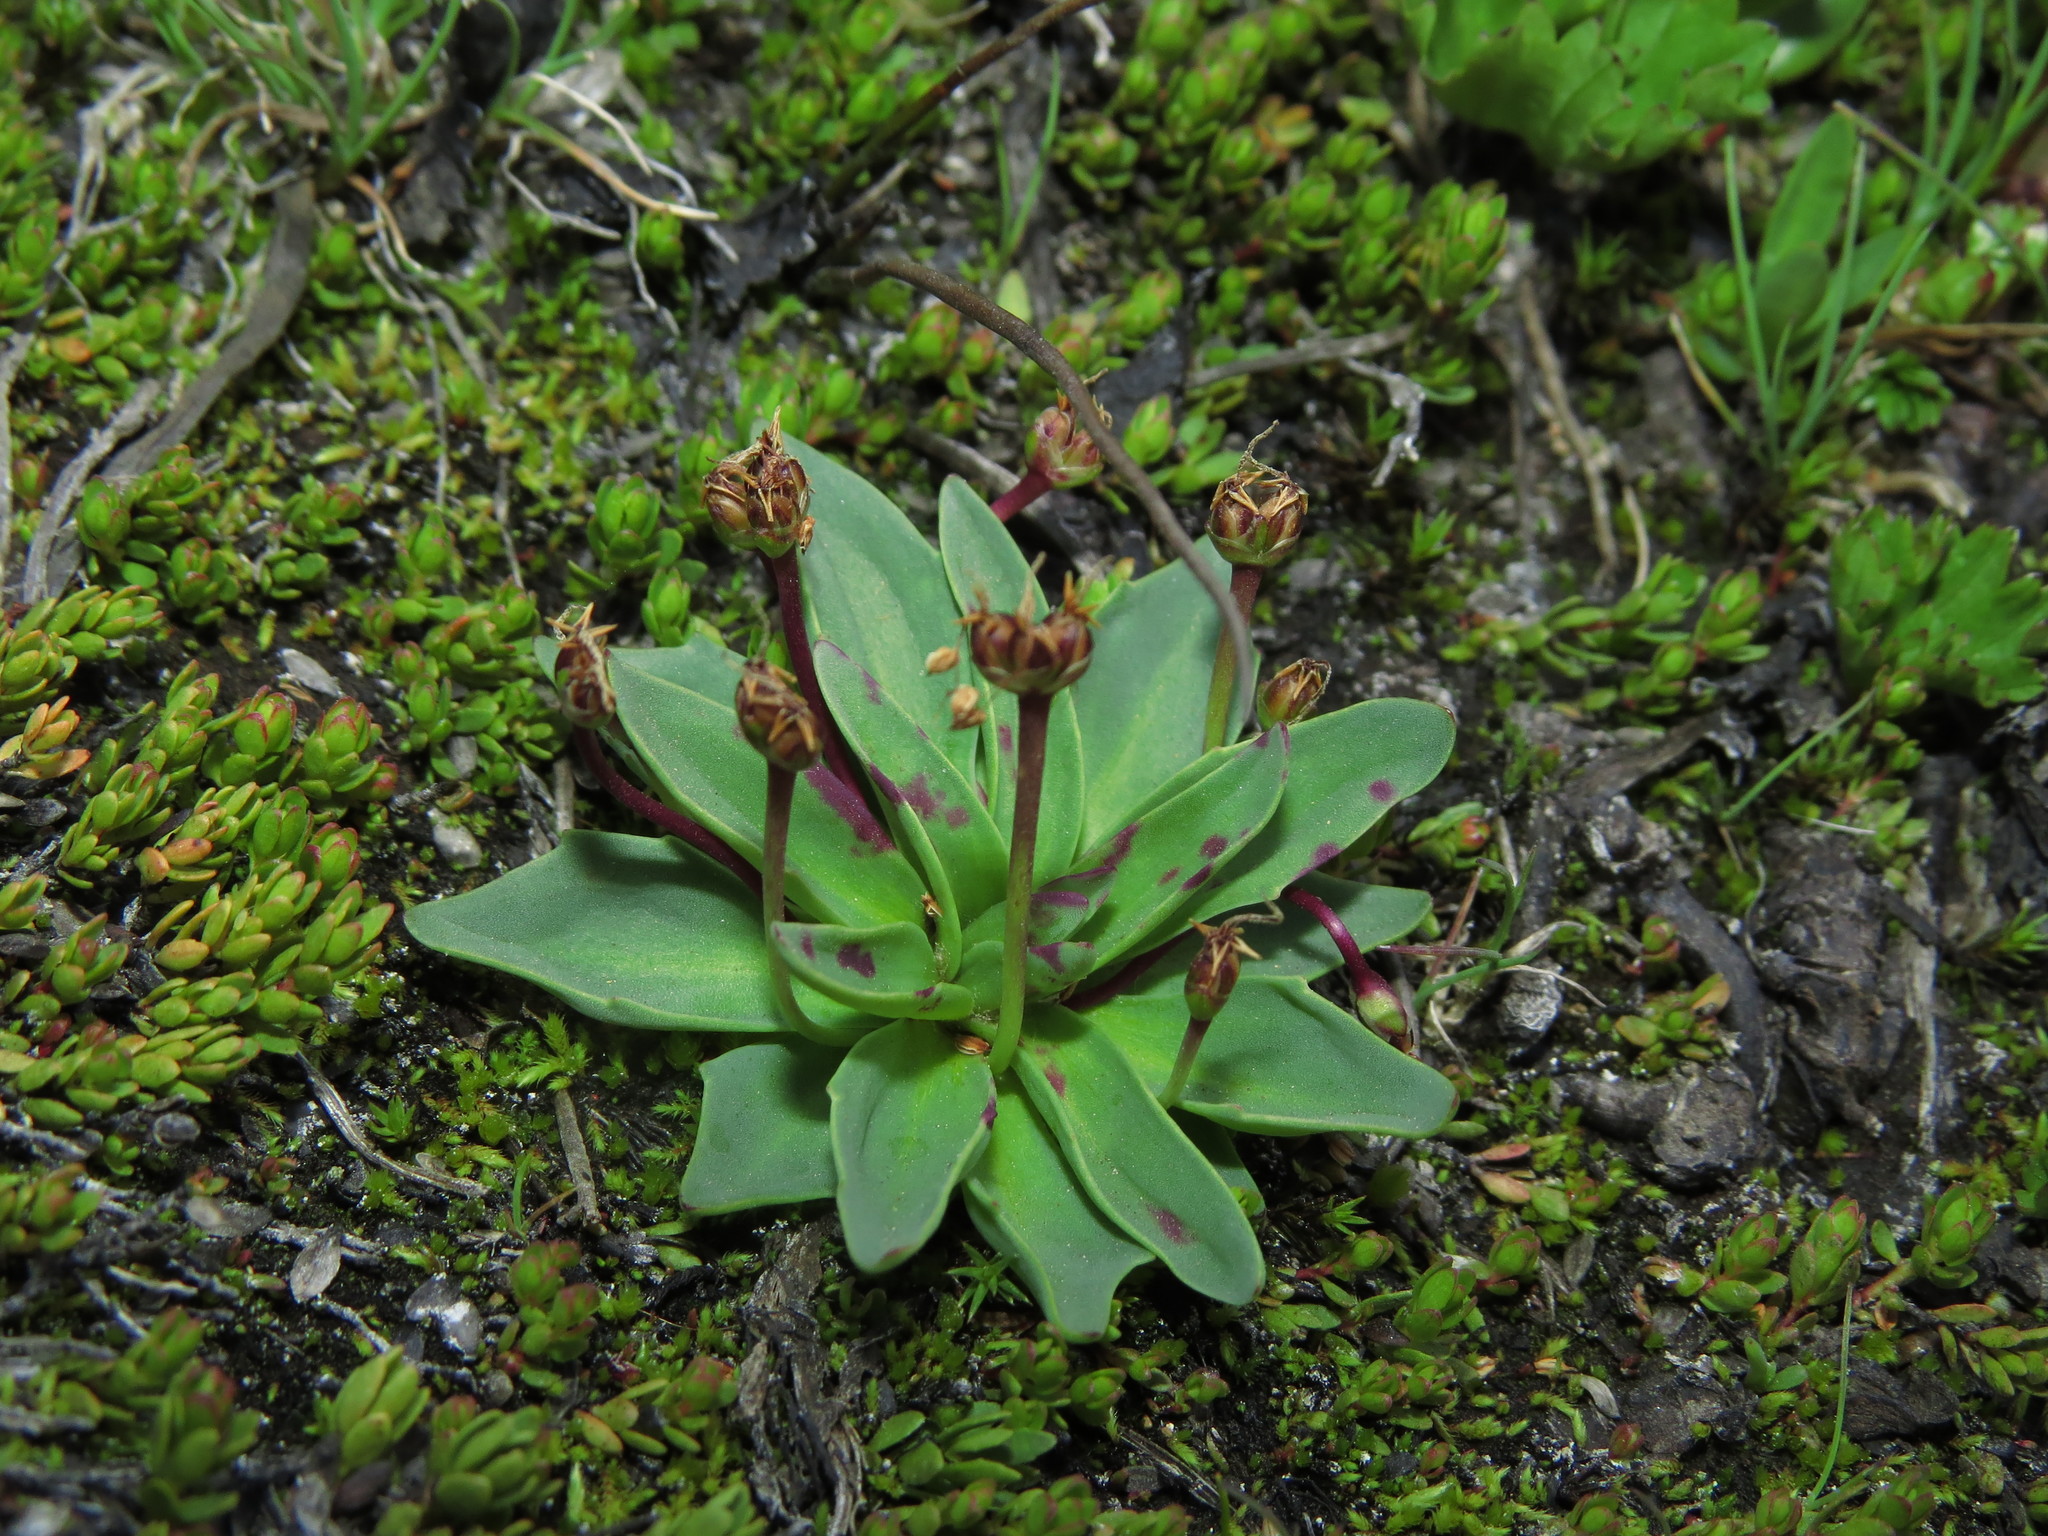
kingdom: Plantae
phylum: Tracheophyta
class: Magnoliopsida
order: Lamiales
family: Plantaginaceae
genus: Plantago
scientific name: Plantago barbata
